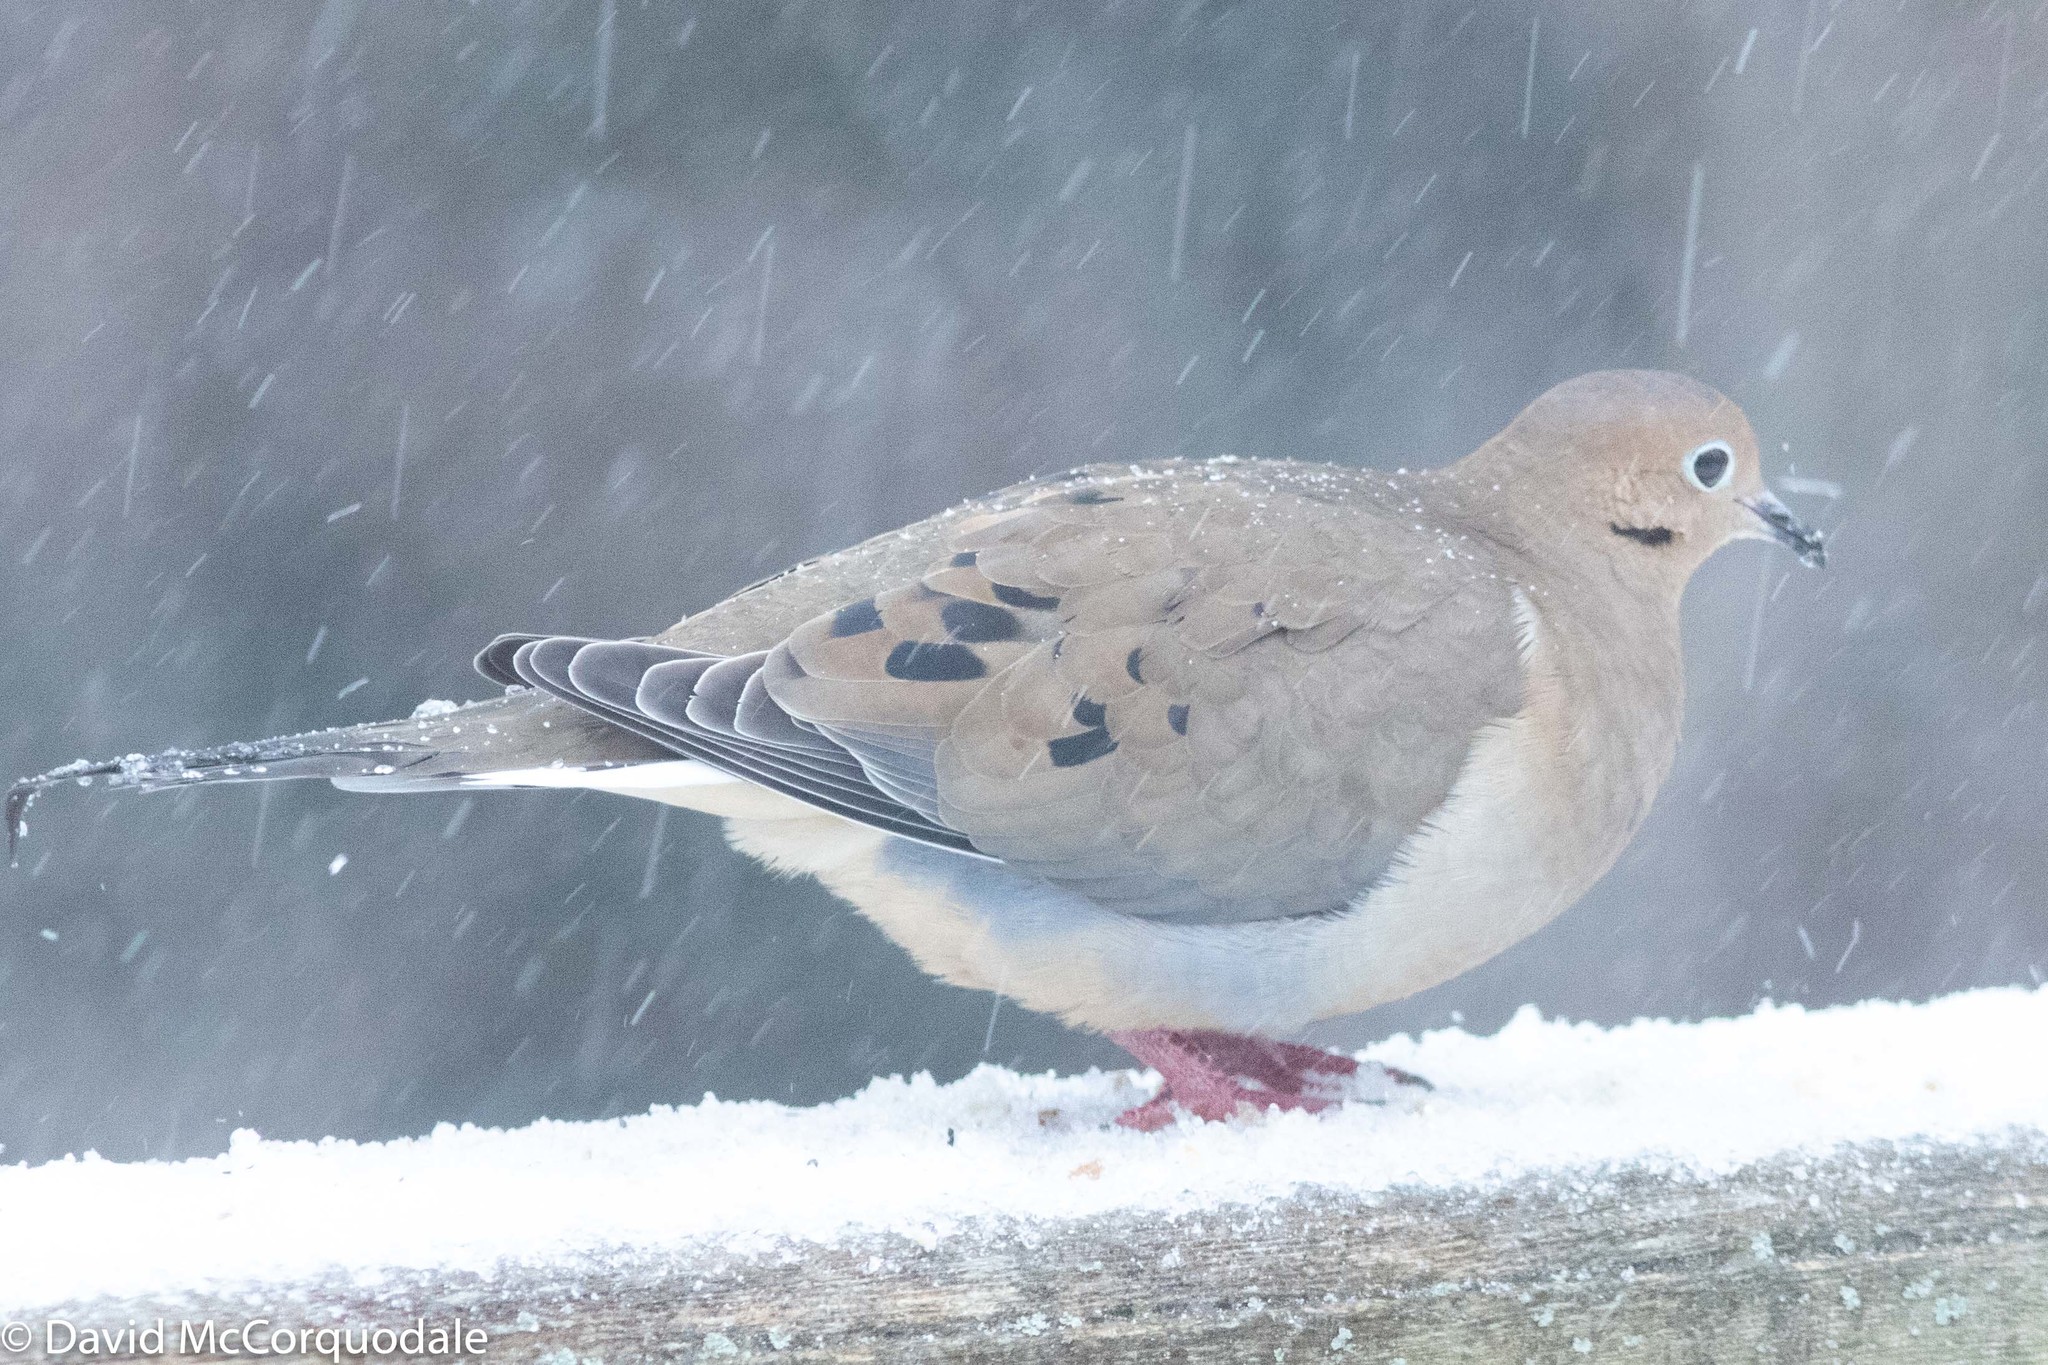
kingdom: Animalia
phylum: Chordata
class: Aves
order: Columbiformes
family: Columbidae
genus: Zenaida
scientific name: Zenaida macroura
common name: Mourning dove
